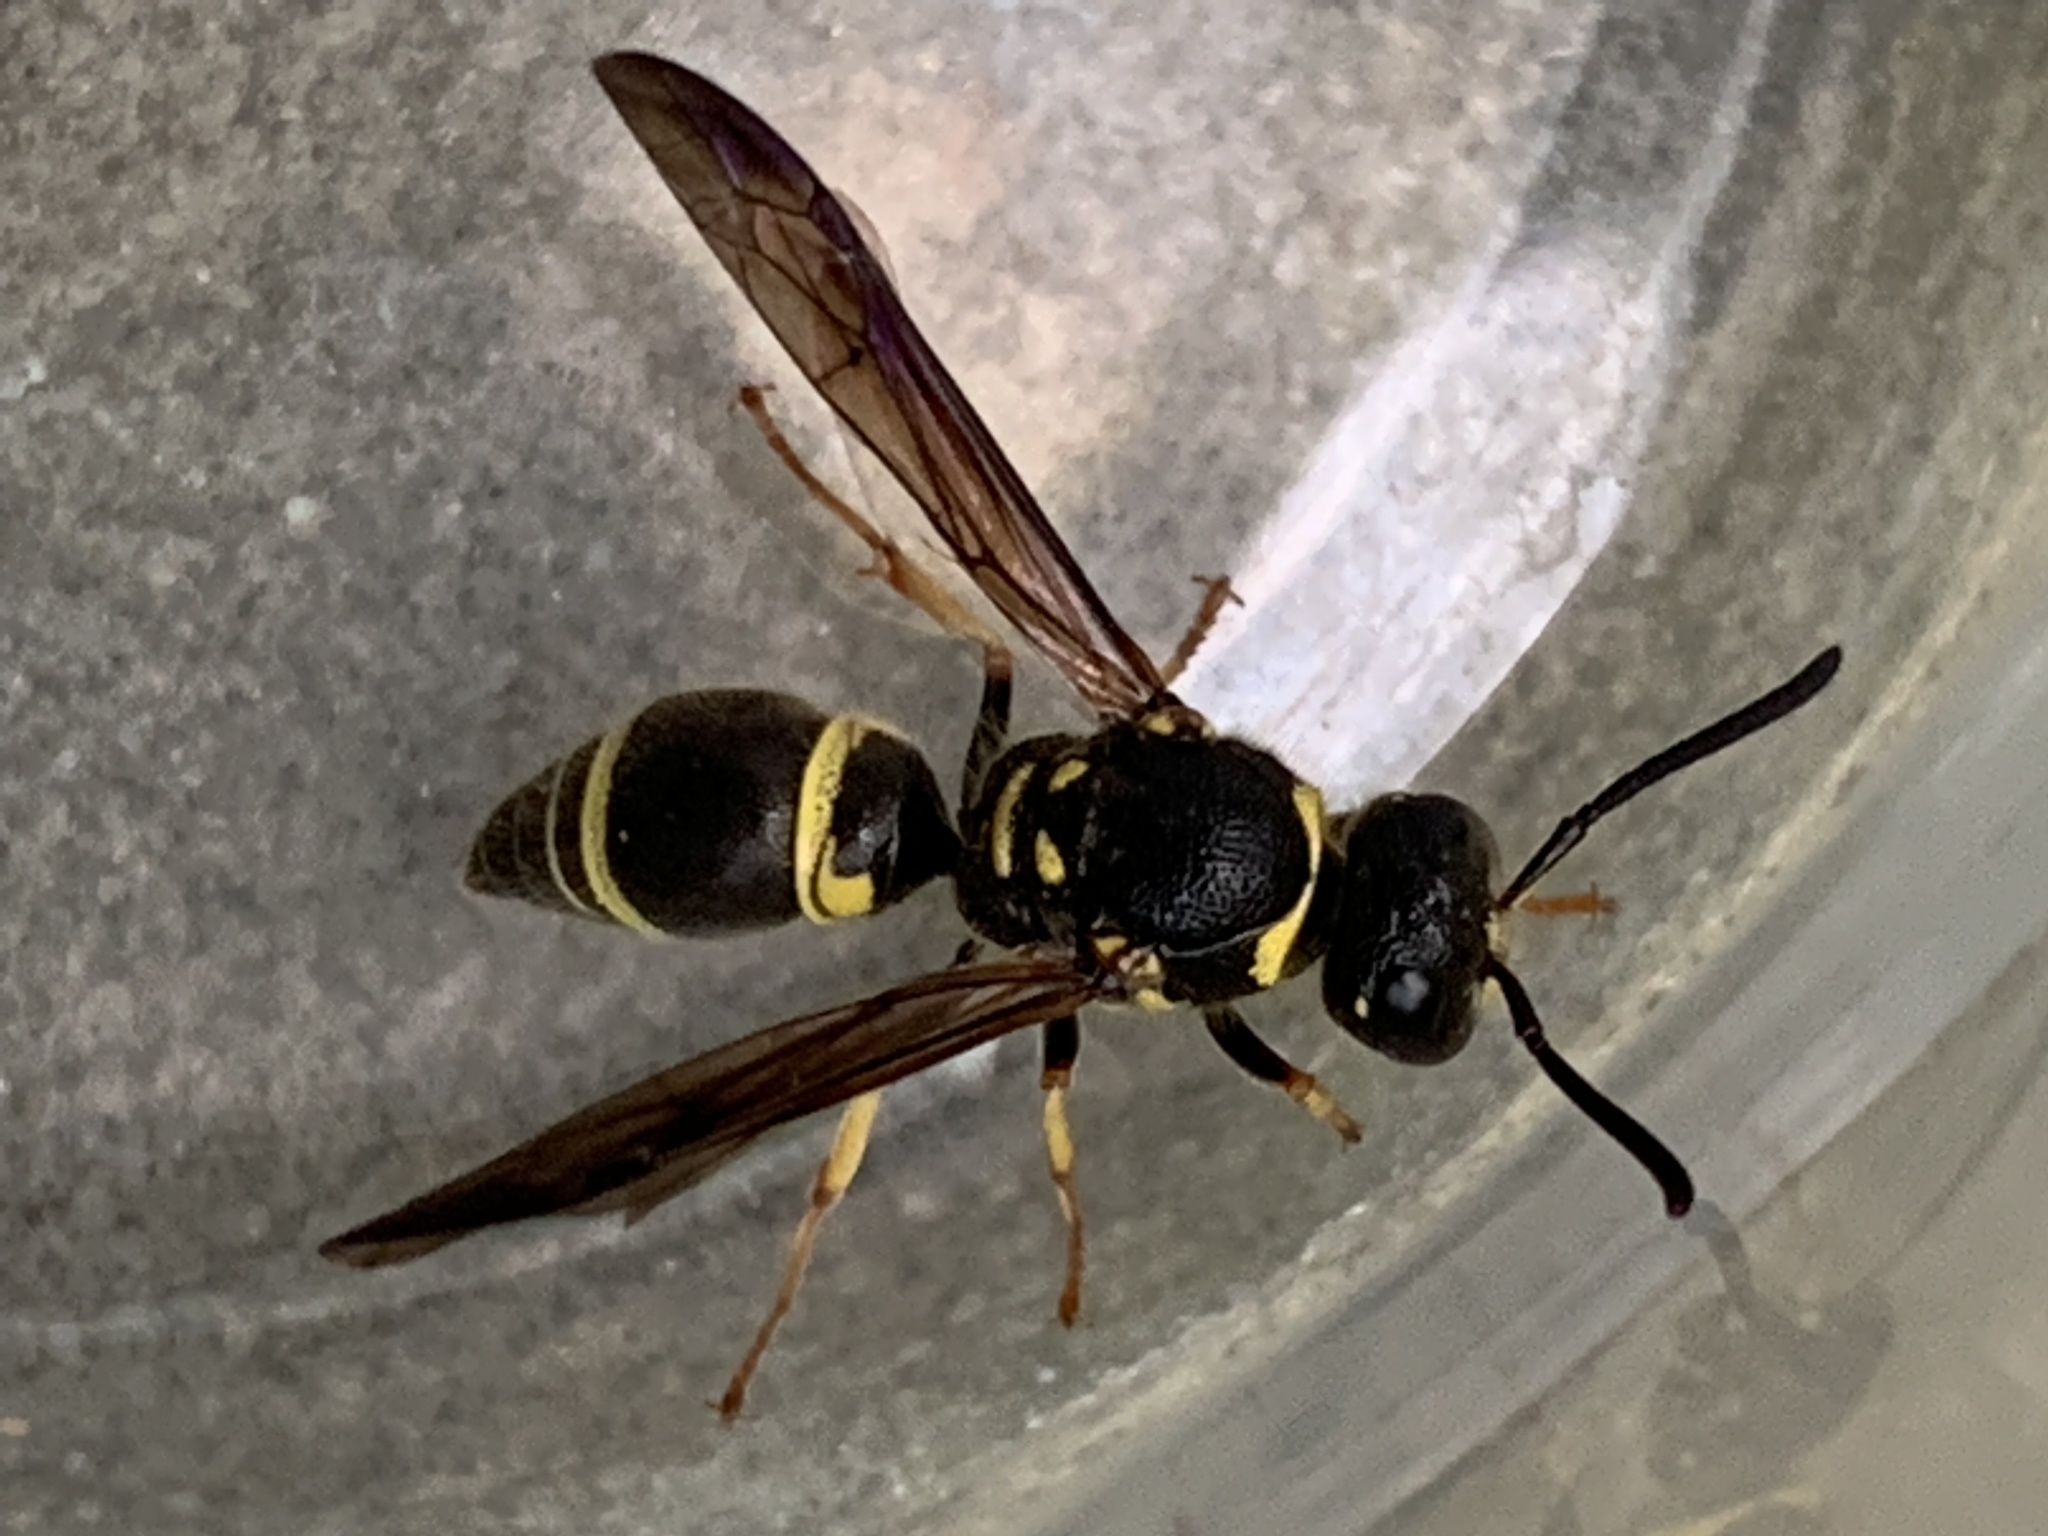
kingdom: Animalia
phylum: Arthropoda
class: Insecta
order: Hymenoptera
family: Vespidae
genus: Ancistrocerus
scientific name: Ancistrocerus campestris
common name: Smiling mason wasp
